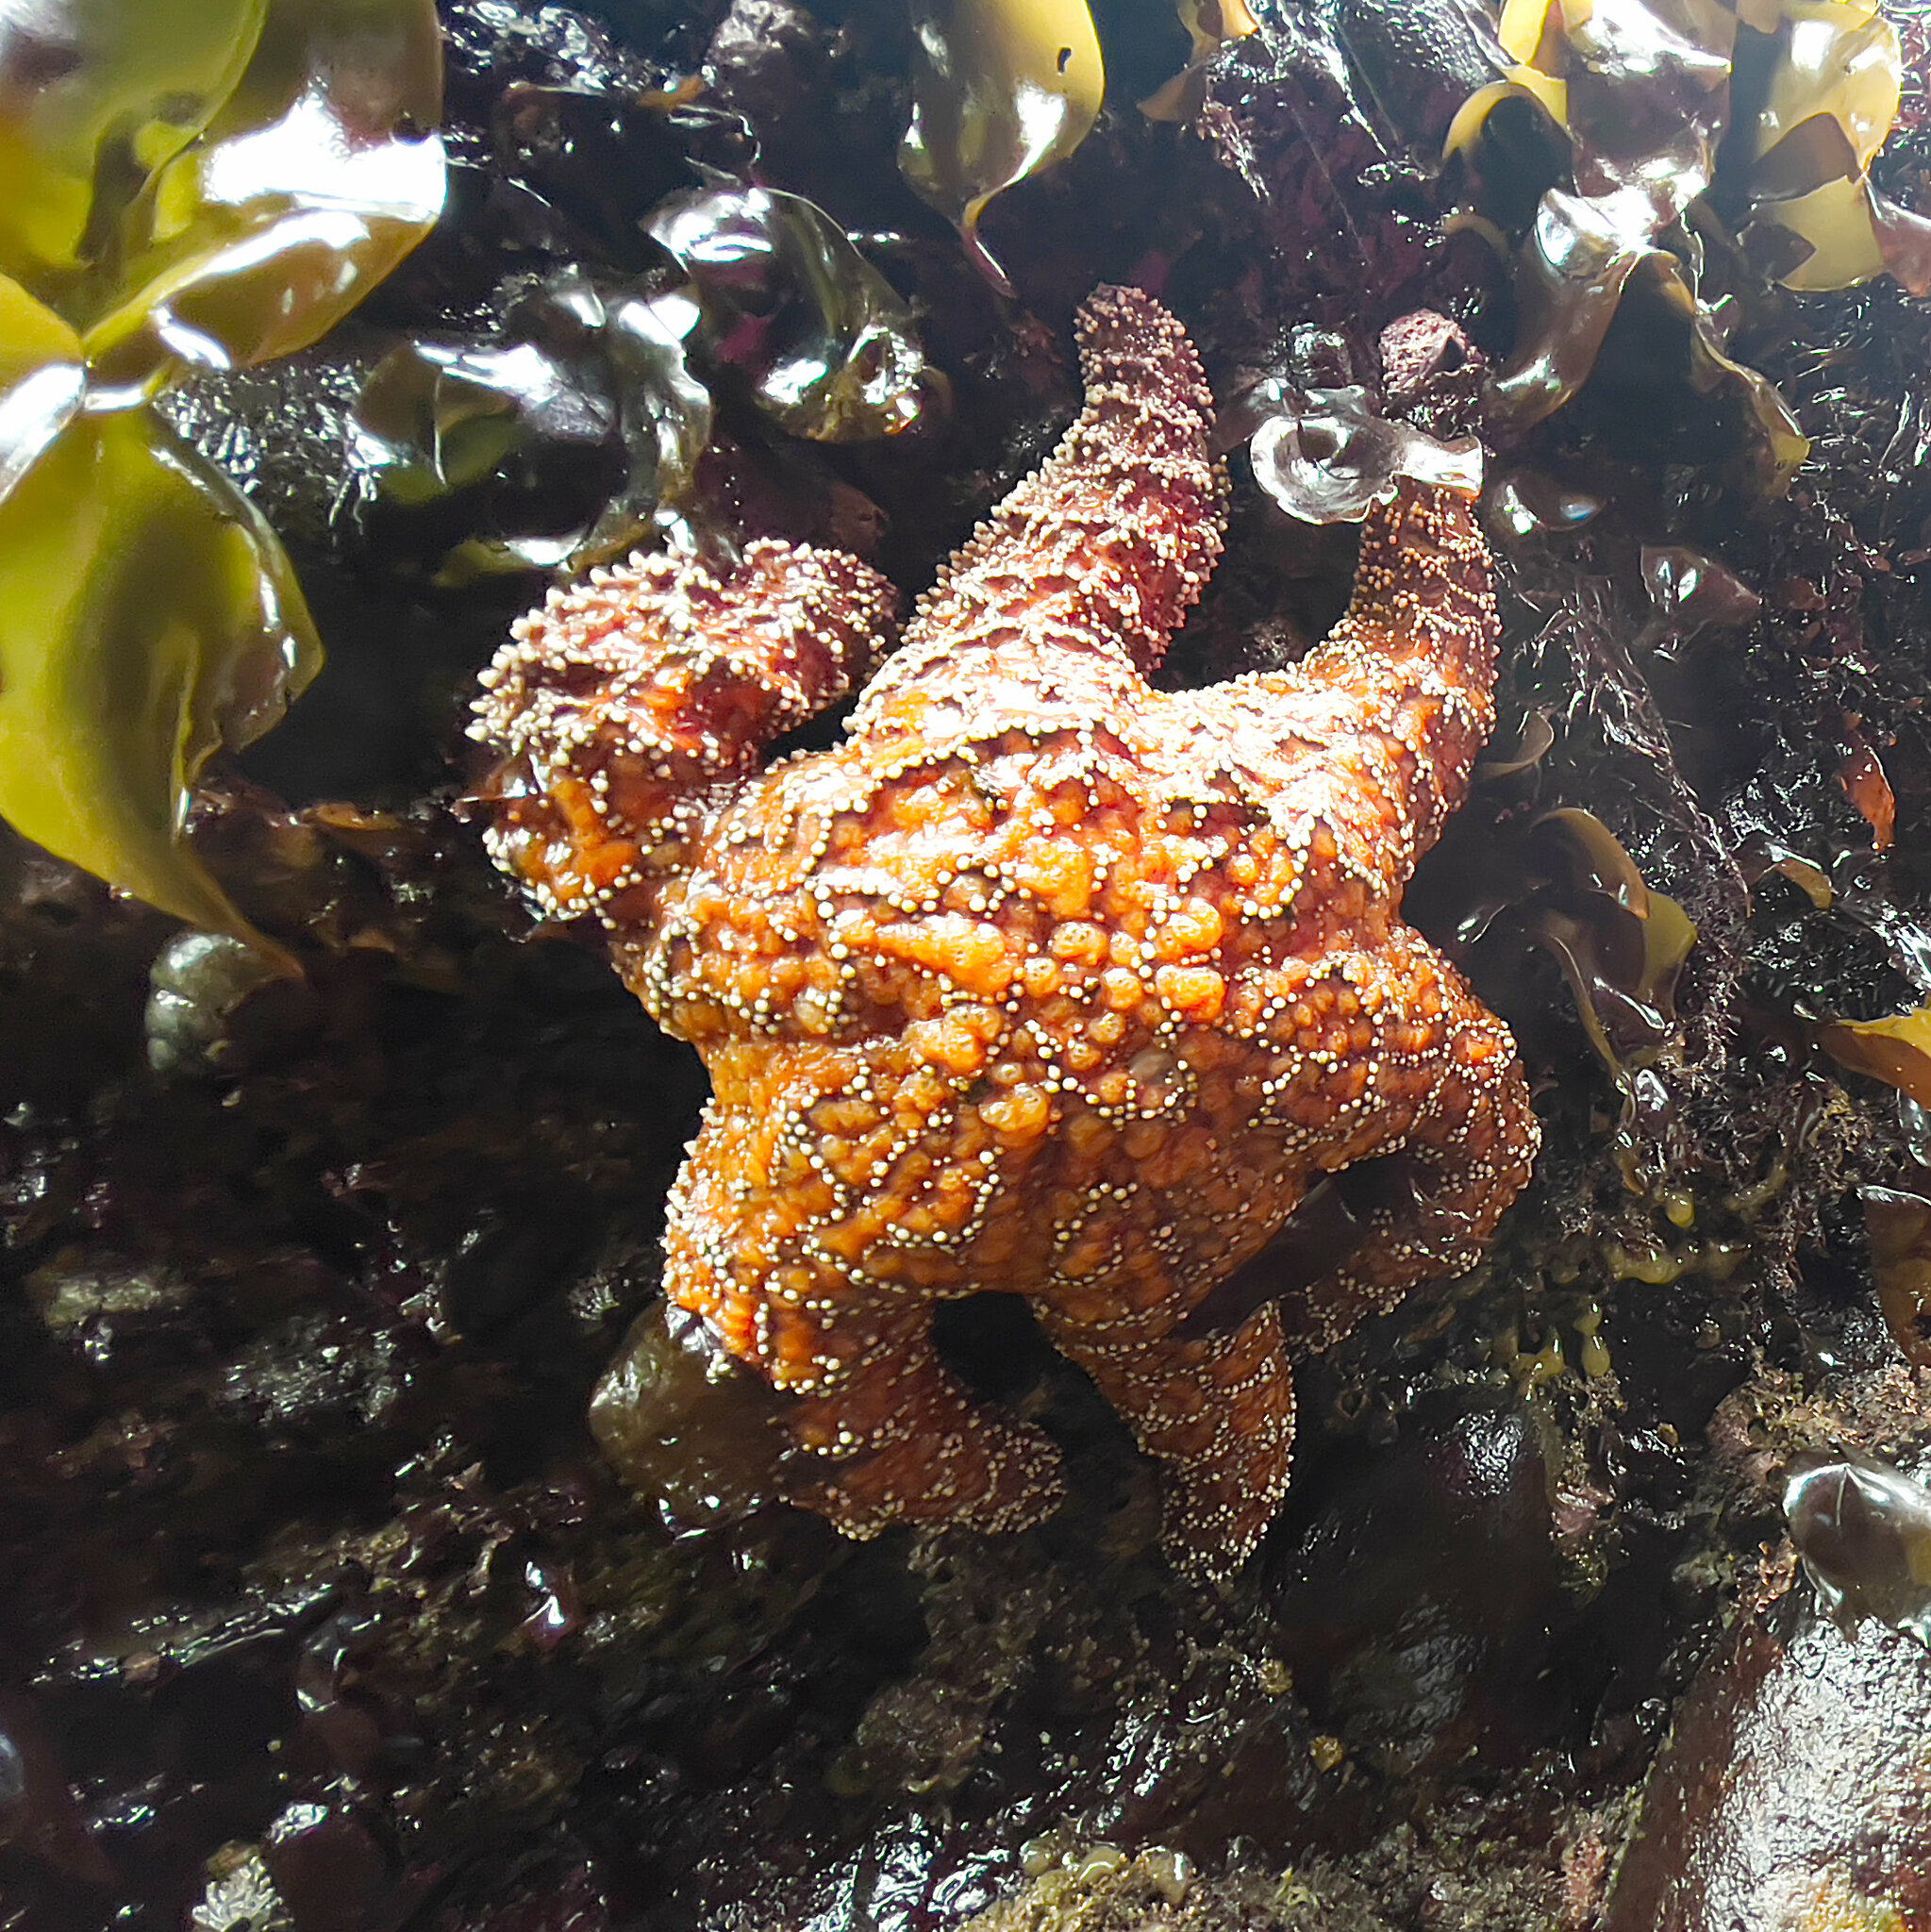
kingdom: Animalia
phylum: Echinodermata
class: Asteroidea
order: Forcipulatida
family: Asteriidae
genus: Pisaster
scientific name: Pisaster ochraceus
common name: Ochre stars
